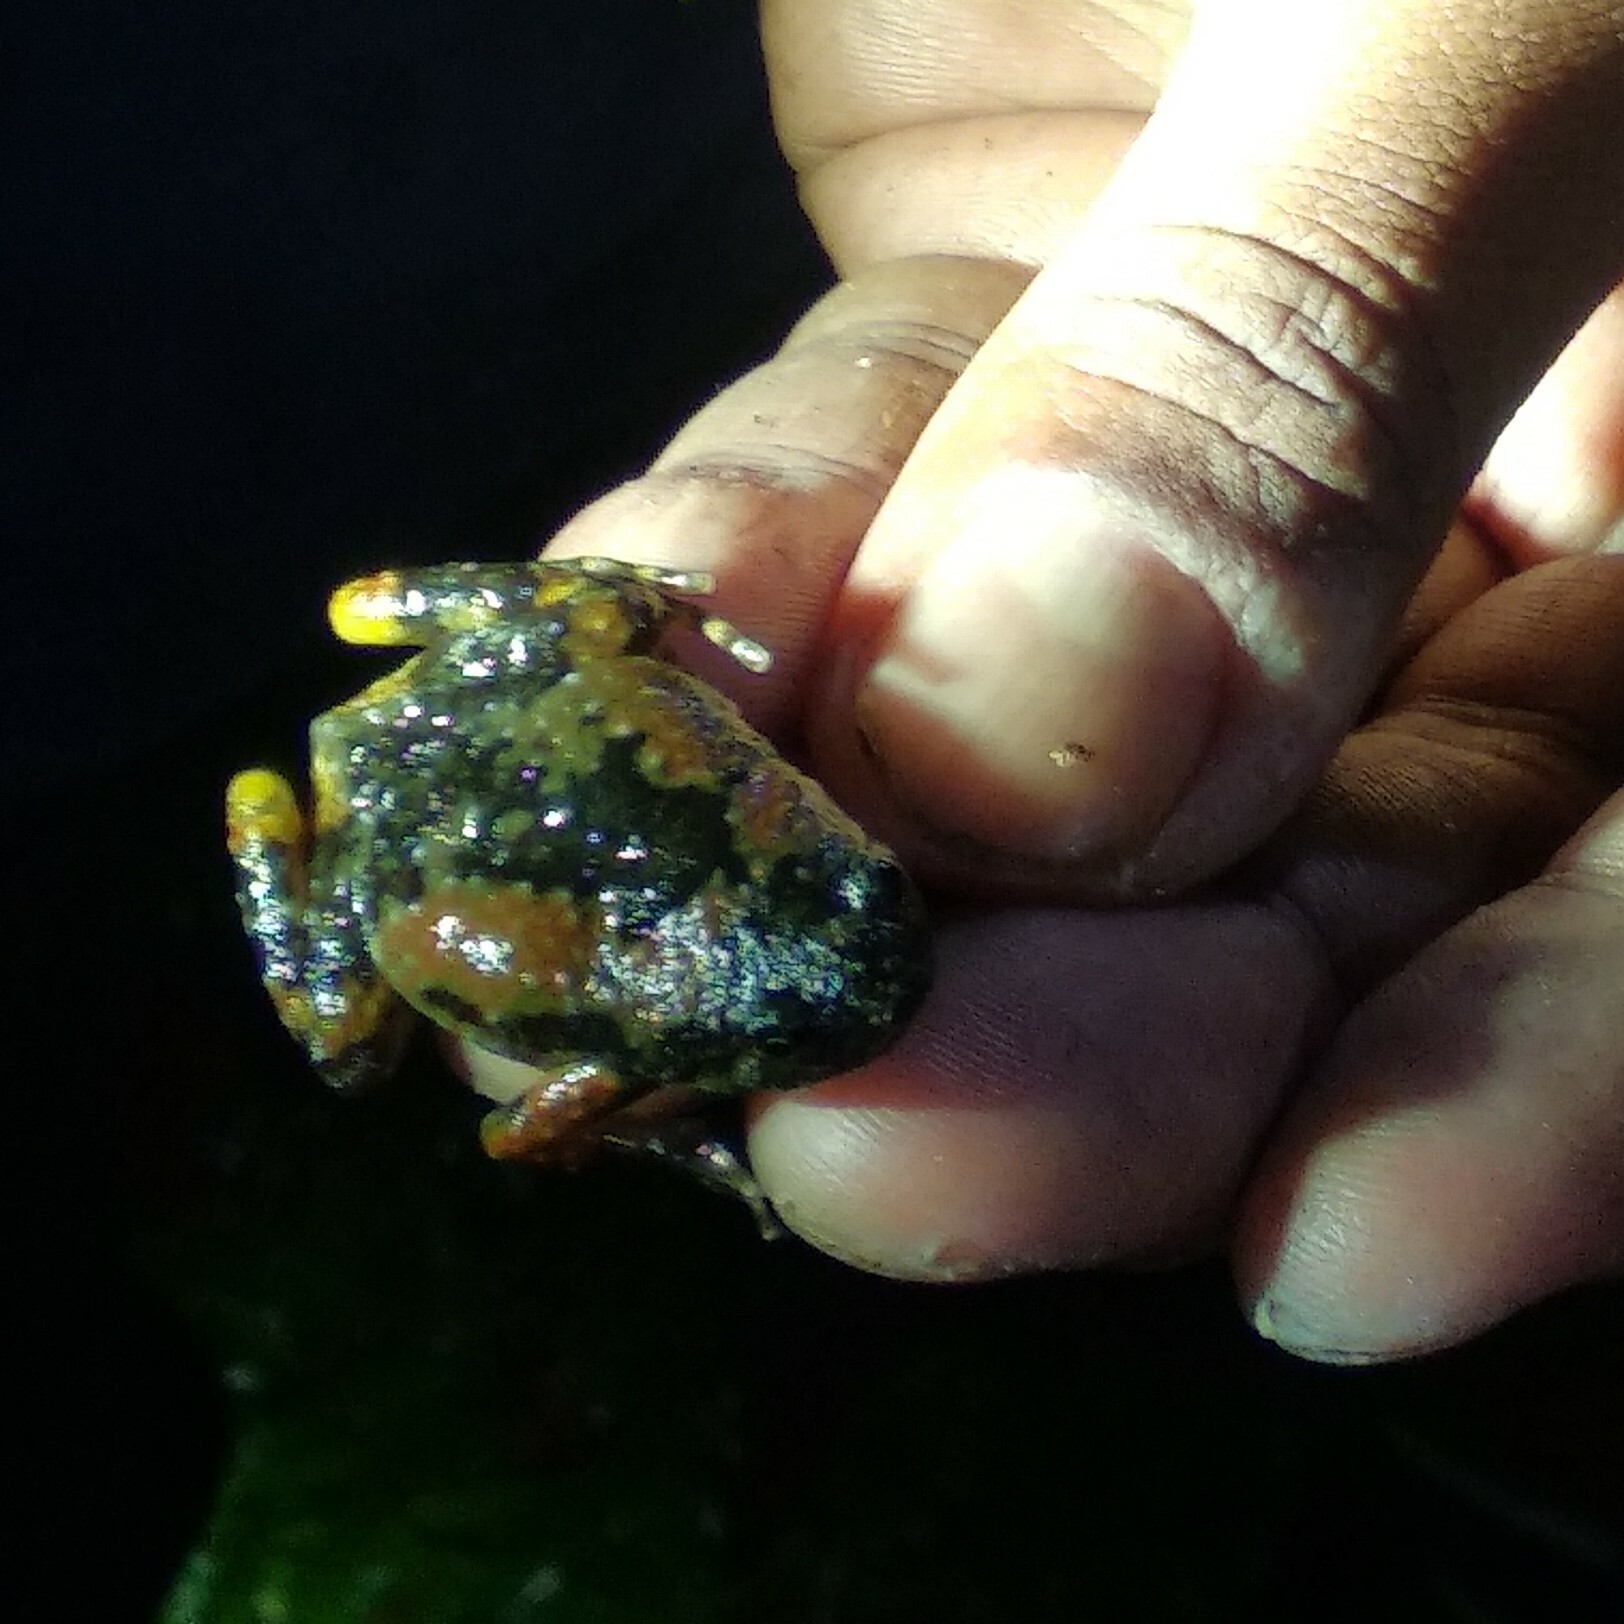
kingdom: Animalia
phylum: Chordata
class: Amphibia
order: Anura
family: Microhylidae
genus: Uperodon
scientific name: Uperodon montanus
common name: Jerdon's ramanella
